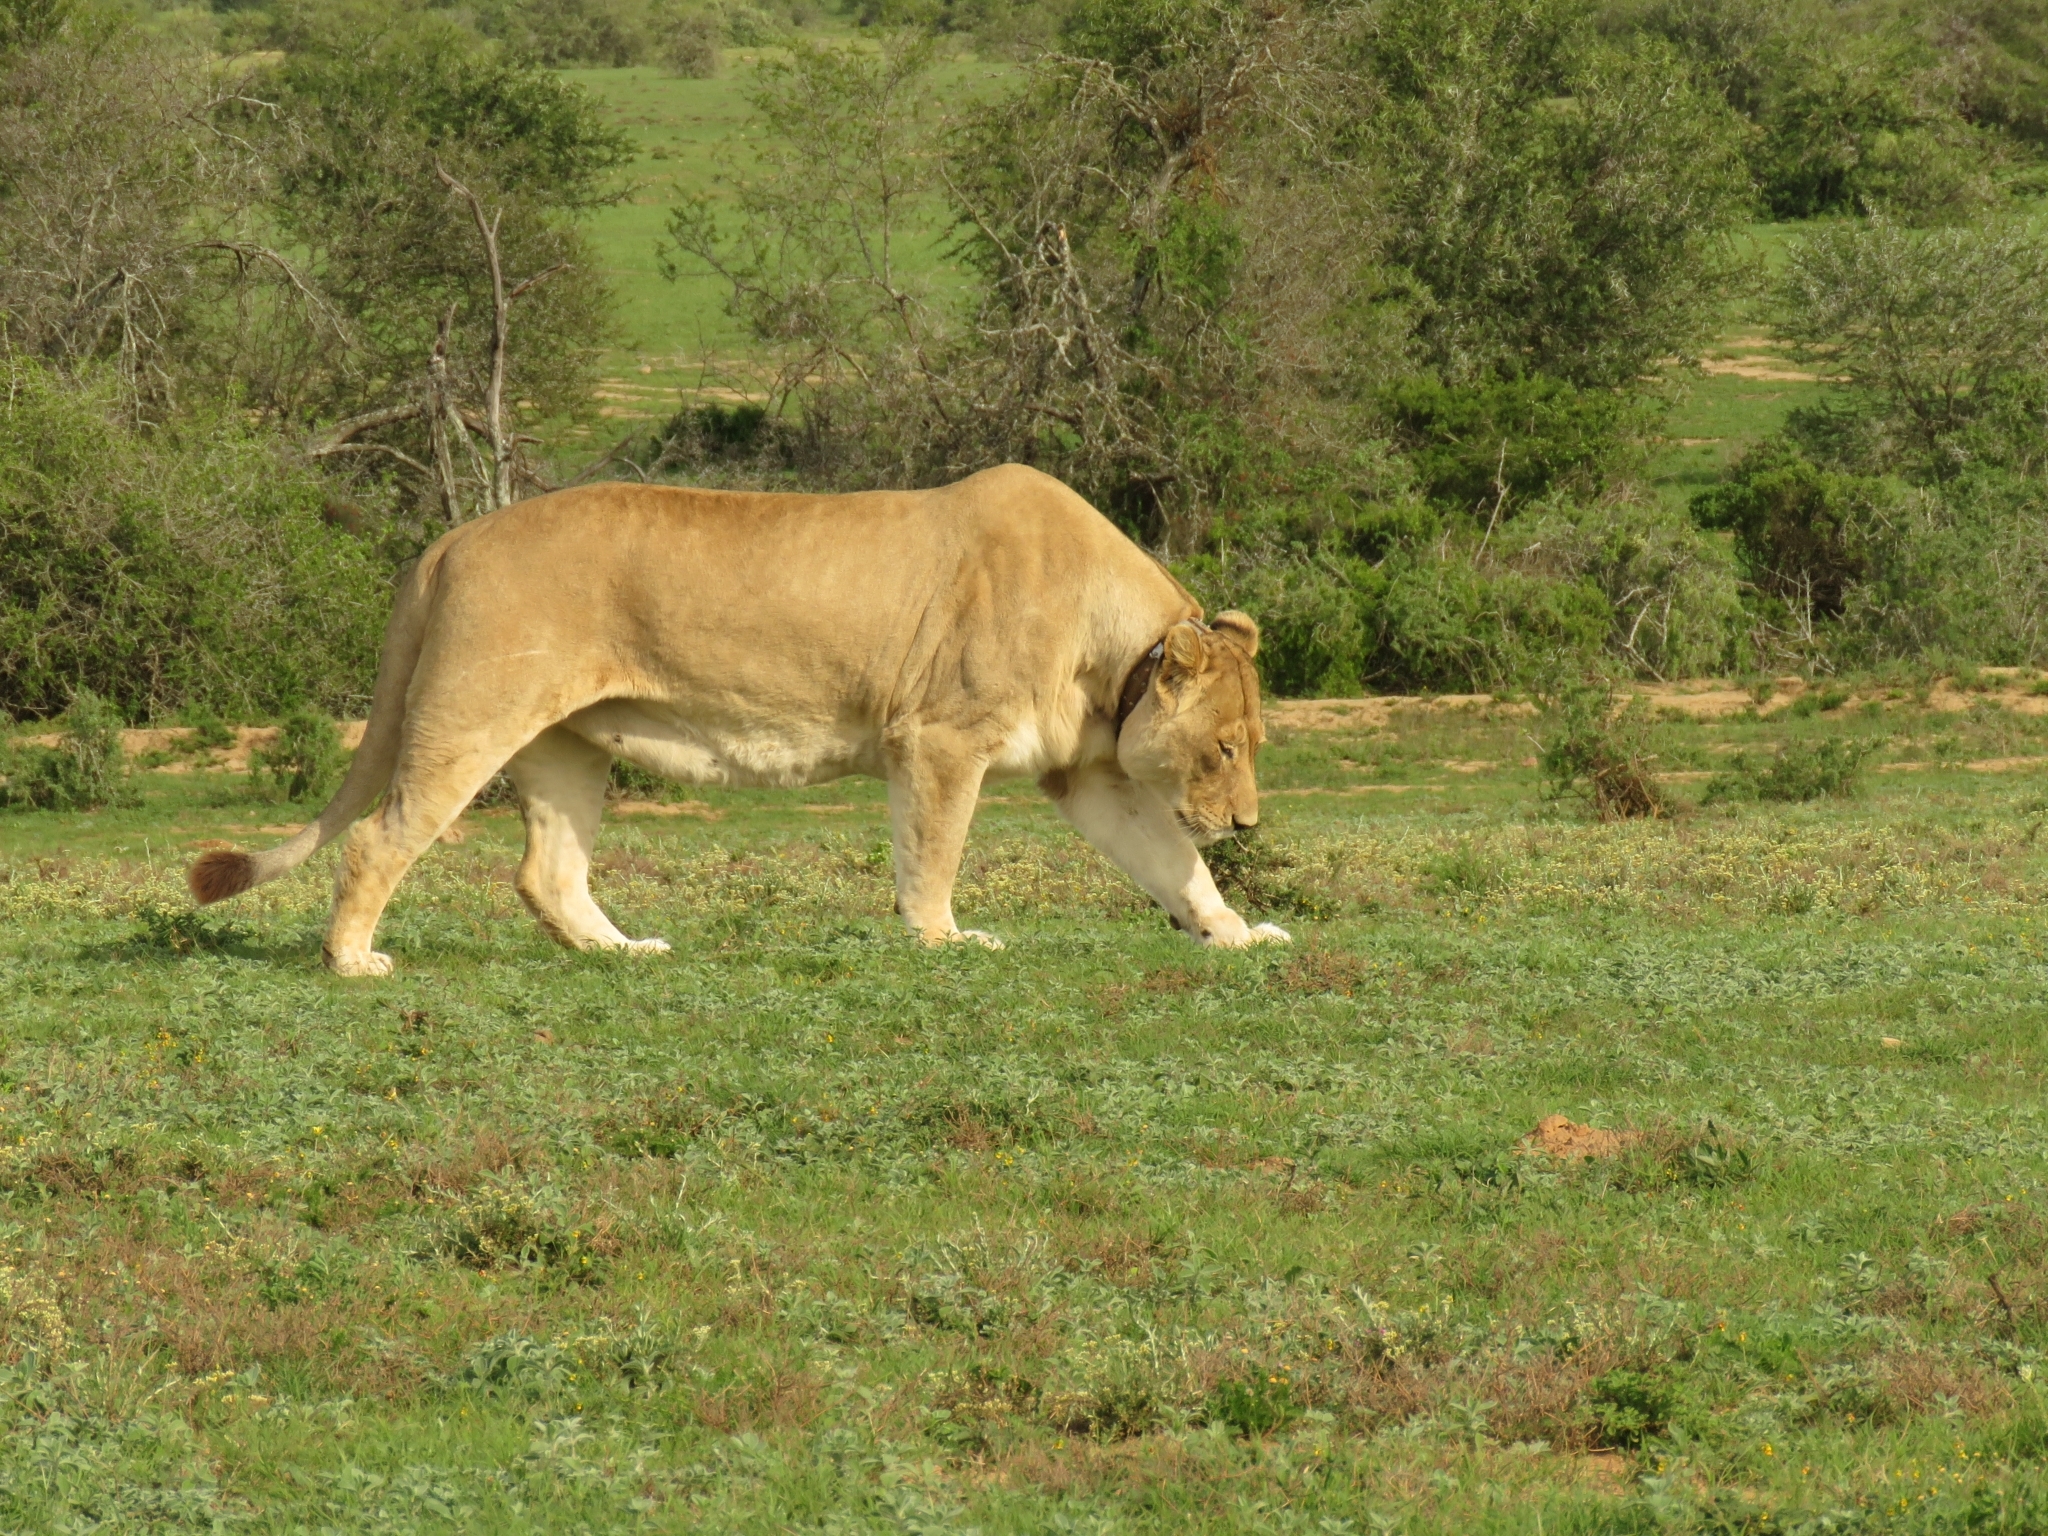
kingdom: Animalia
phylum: Chordata
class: Mammalia
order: Carnivora
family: Felidae
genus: Panthera
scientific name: Panthera leo
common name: Lion
